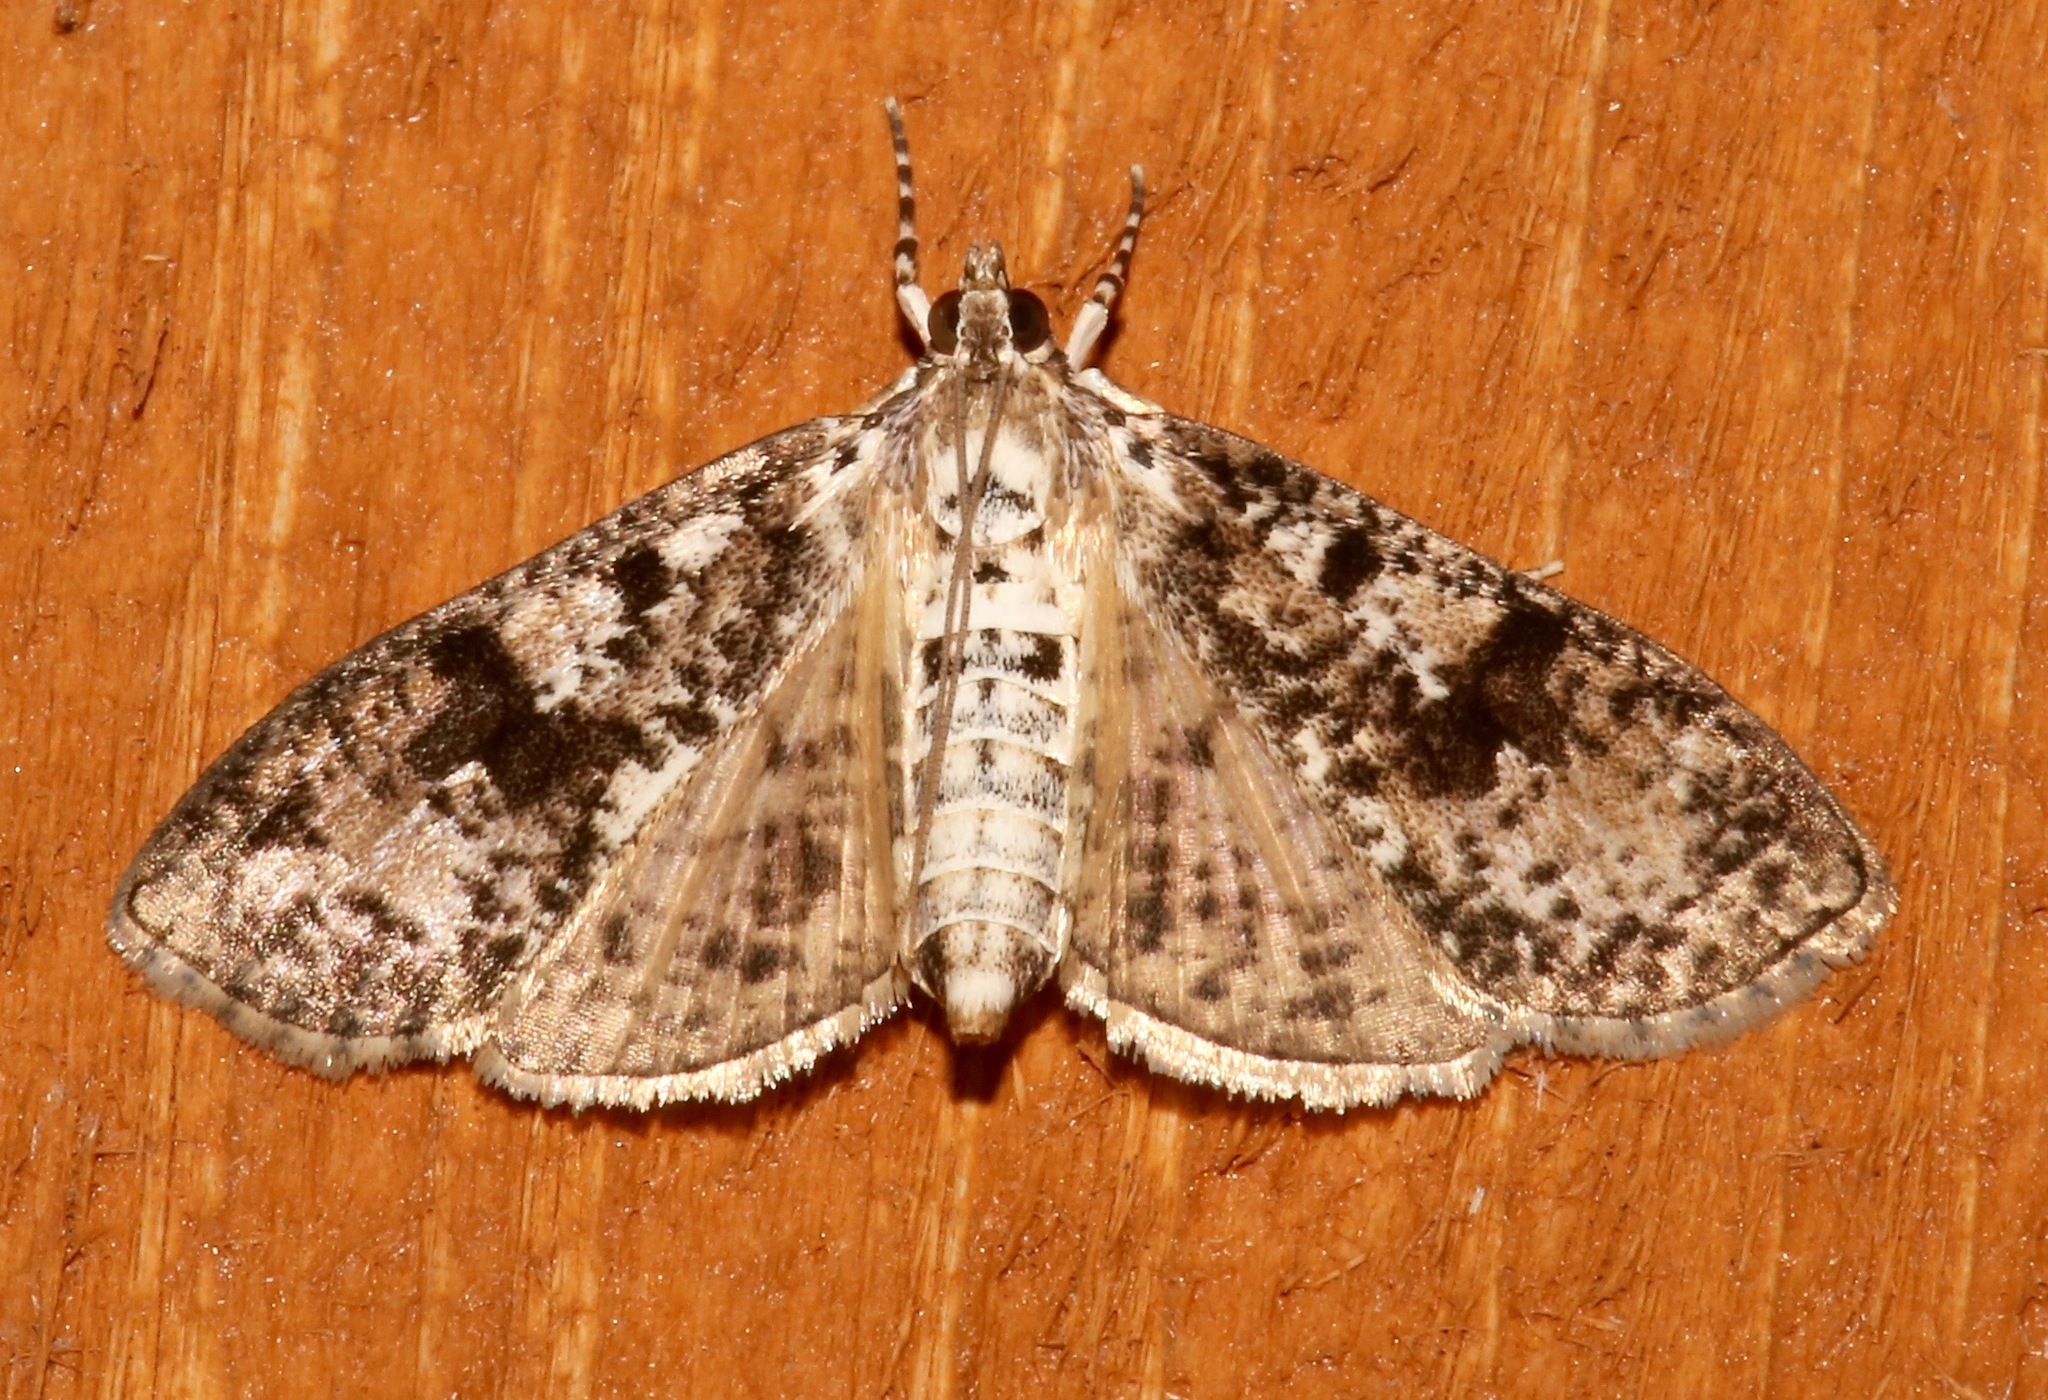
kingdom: Animalia
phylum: Arthropoda
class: Insecta
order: Lepidoptera
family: Crambidae
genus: Palpita
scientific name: Palpita magniferalis
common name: Splendid palpita moth
